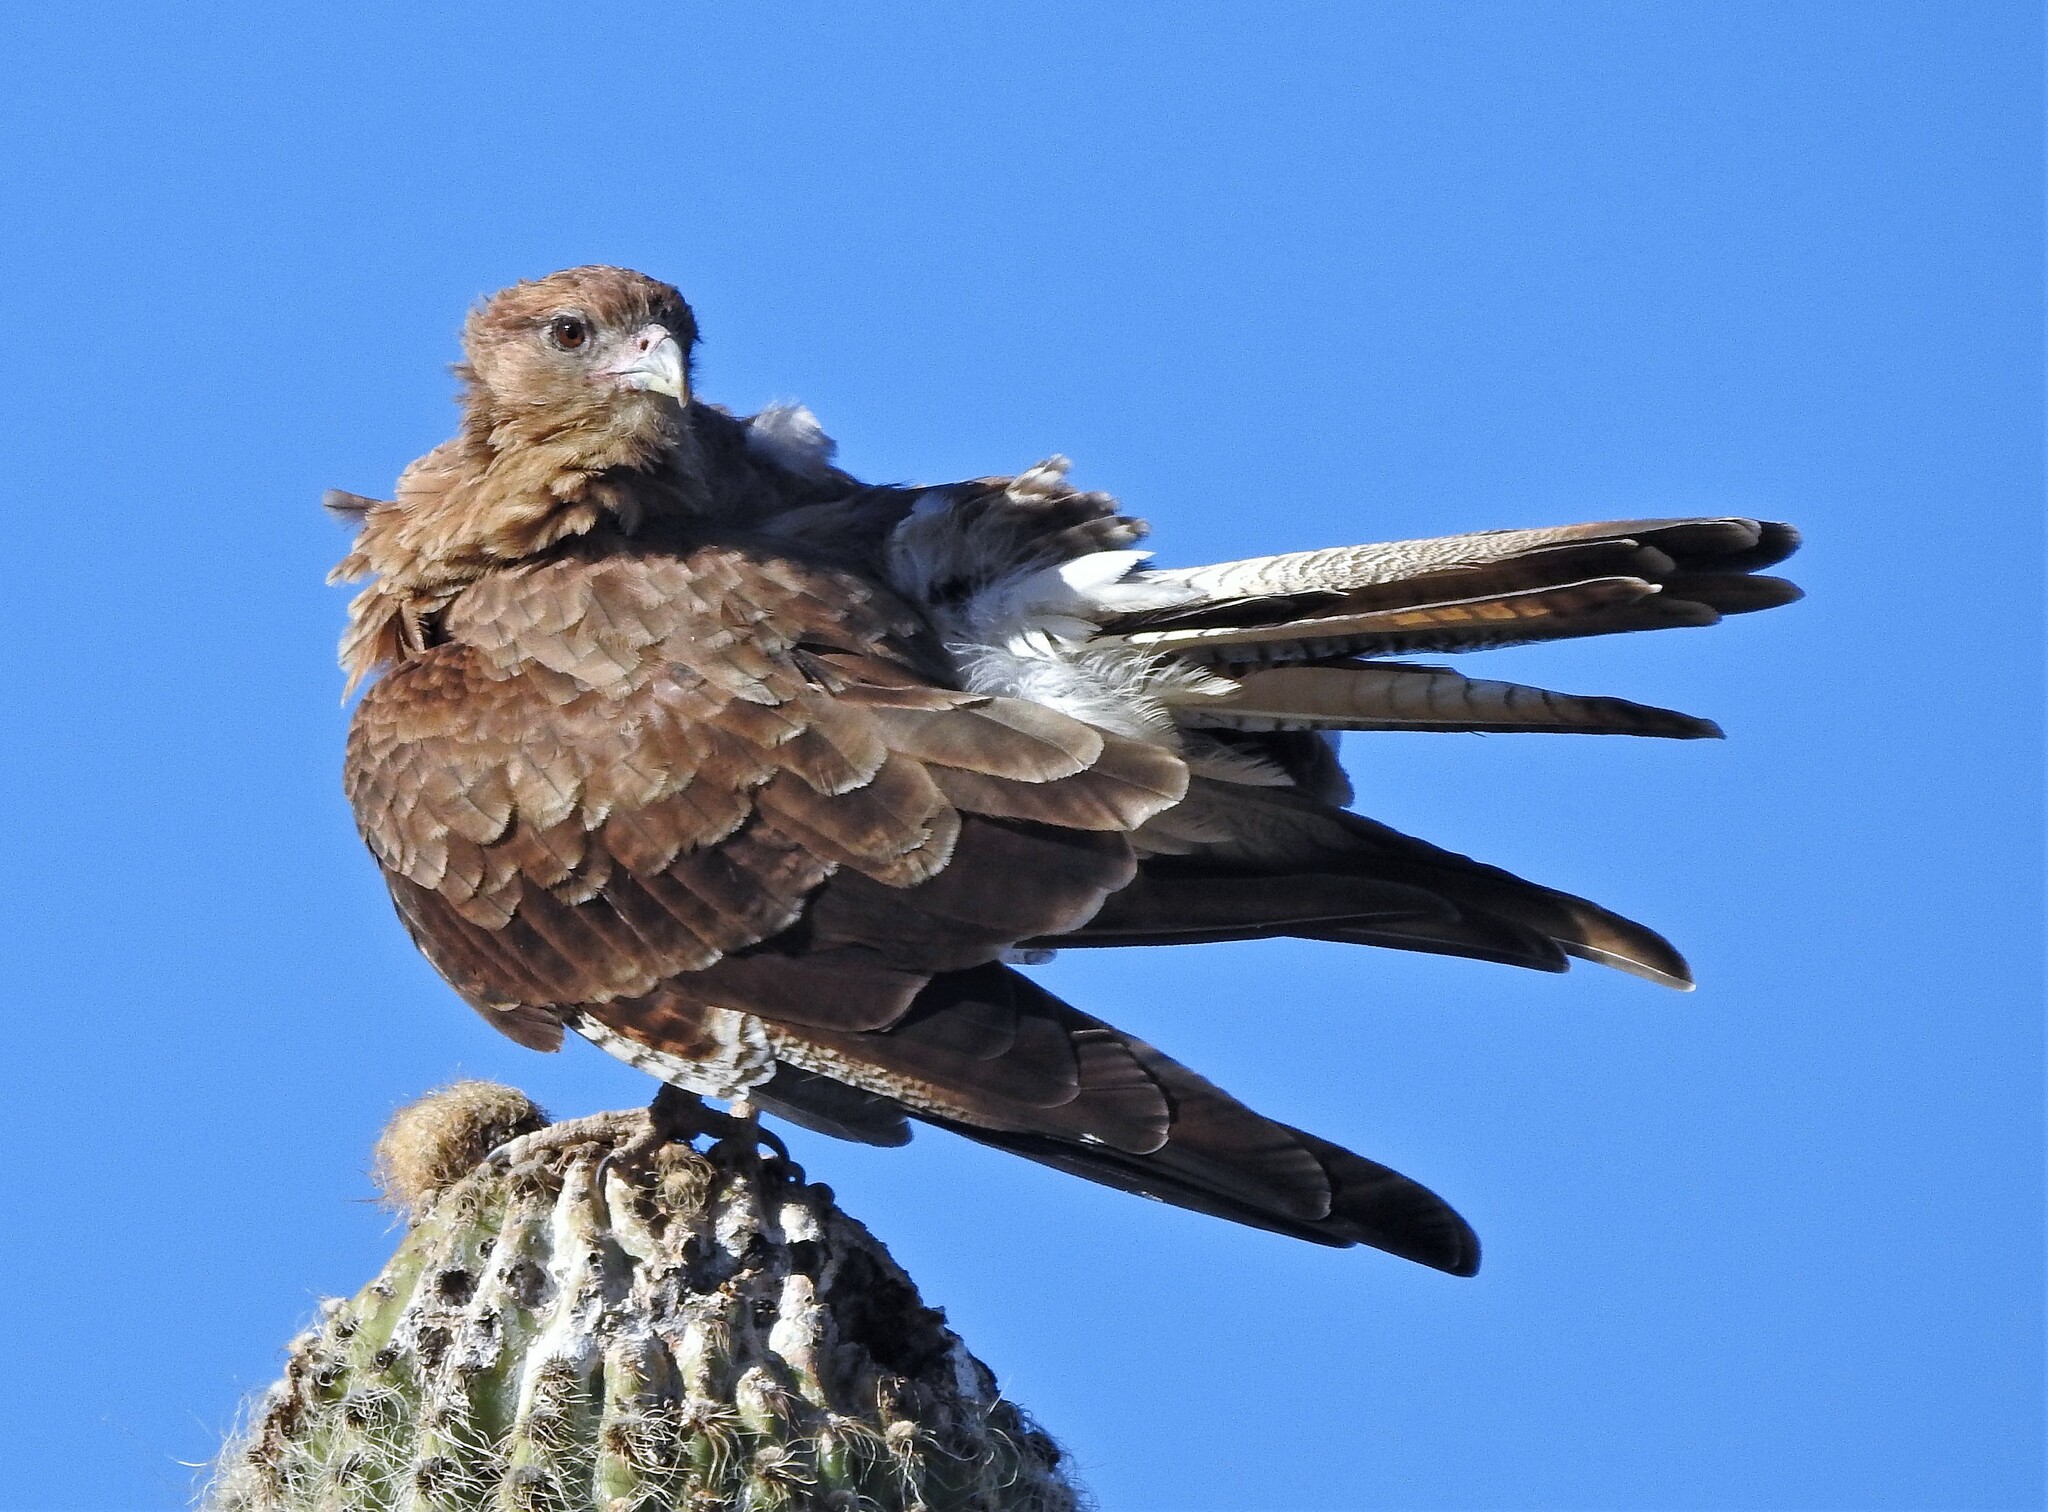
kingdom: Animalia
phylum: Chordata
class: Aves
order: Falconiformes
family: Falconidae
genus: Daptrius
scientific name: Daptrius
